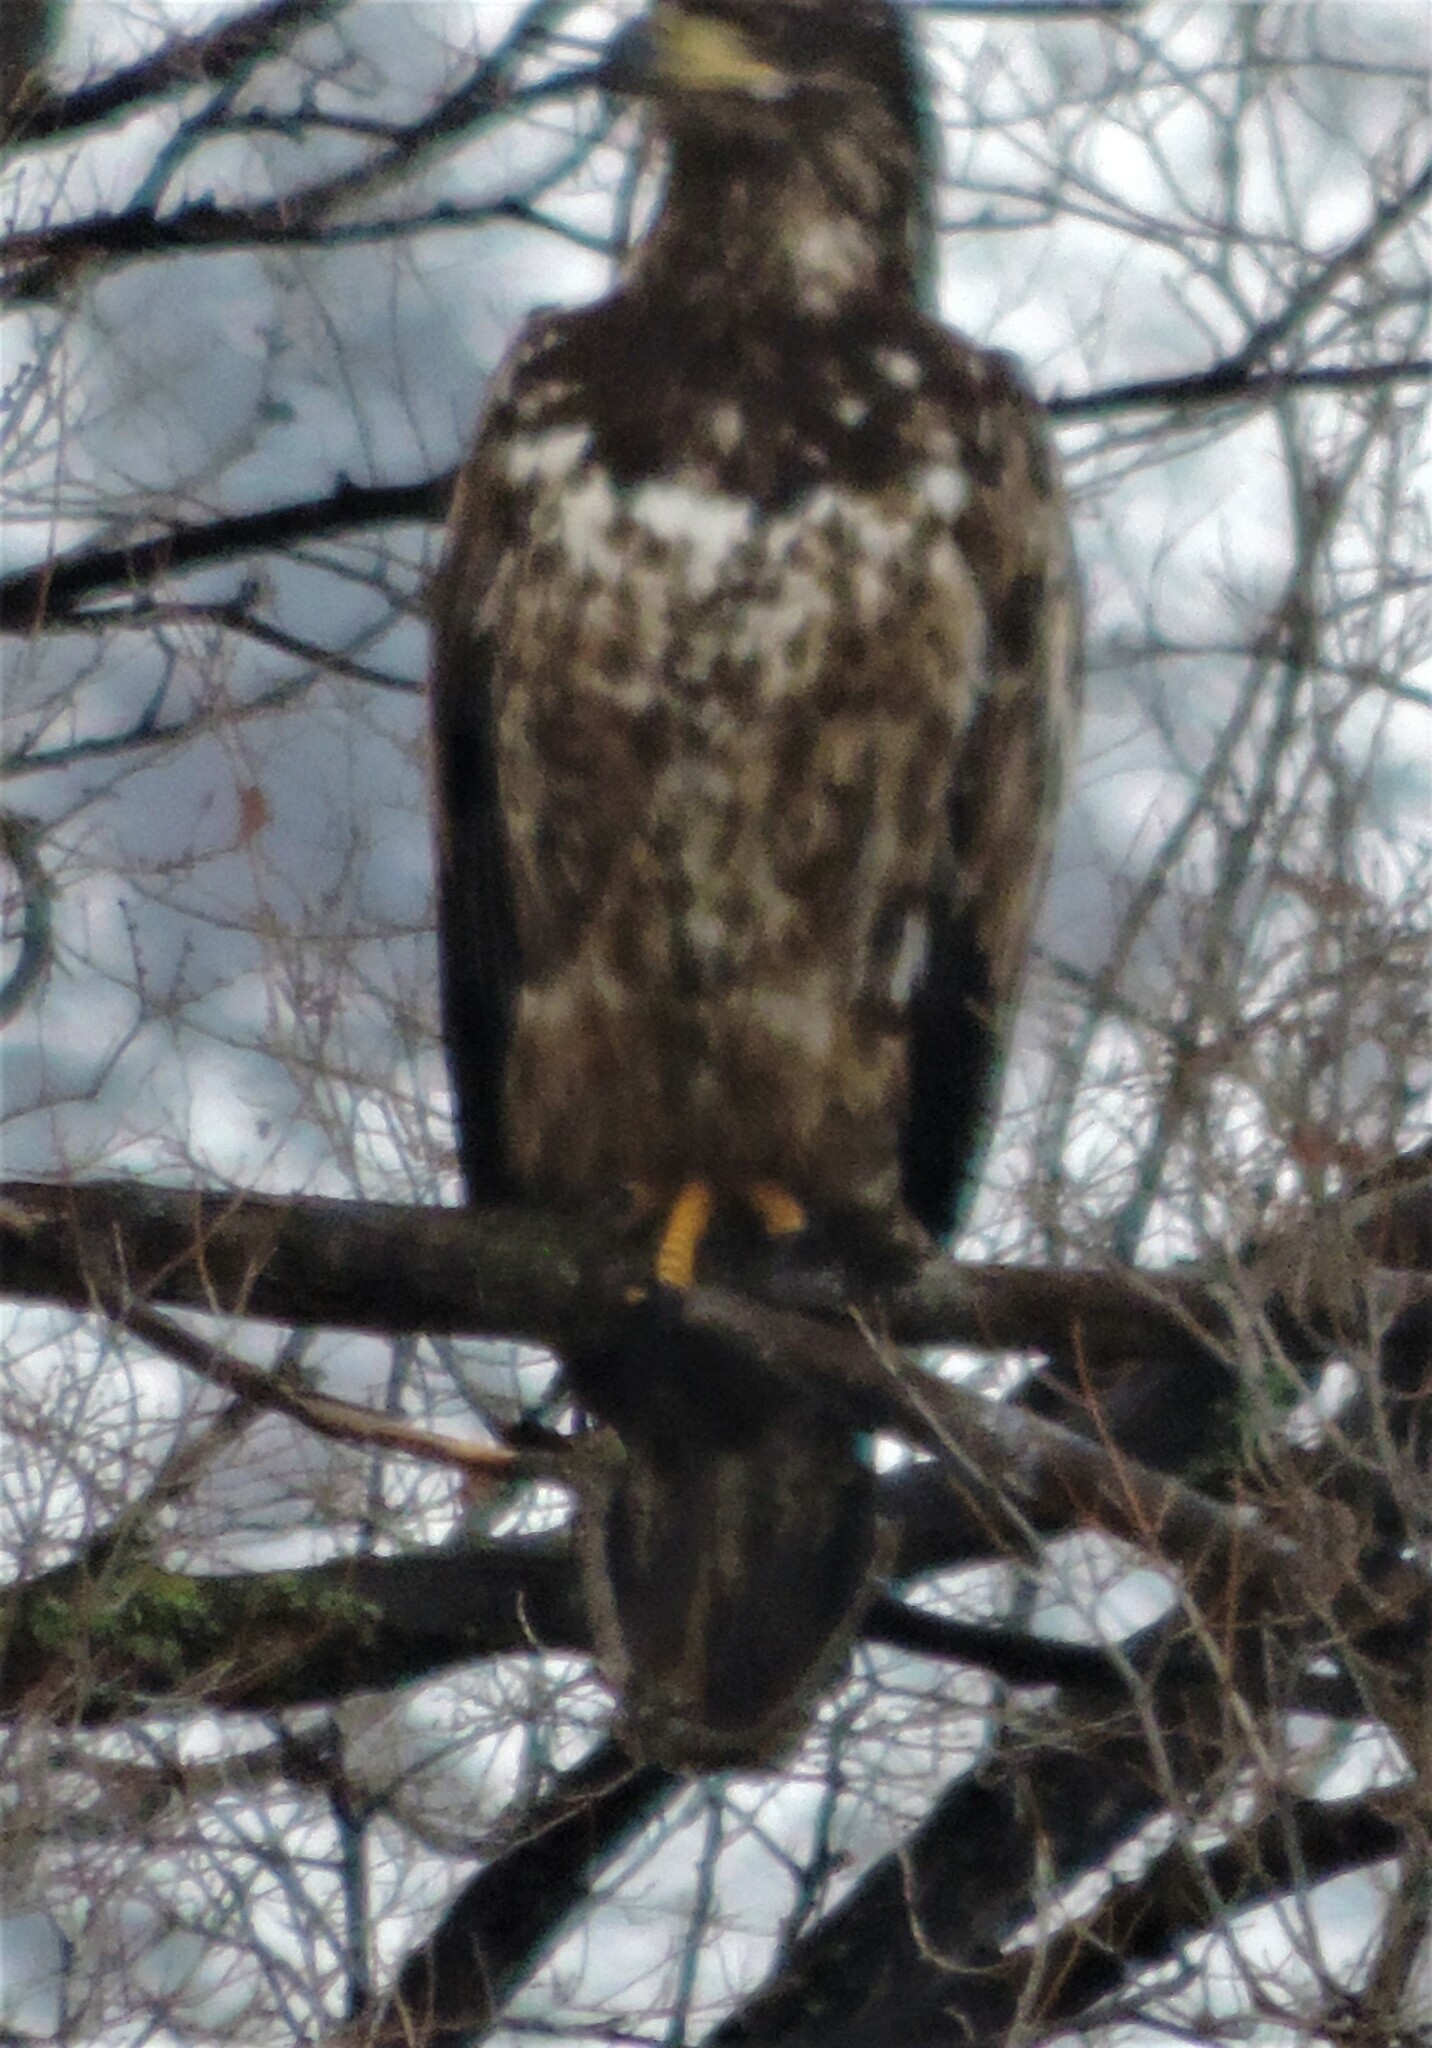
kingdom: Animalia
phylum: Chordata
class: Aves
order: Accipitriformes
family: Accipitridae
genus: Haliaeetus
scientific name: Haliaeetus leucocephalus
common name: Bald eagle
